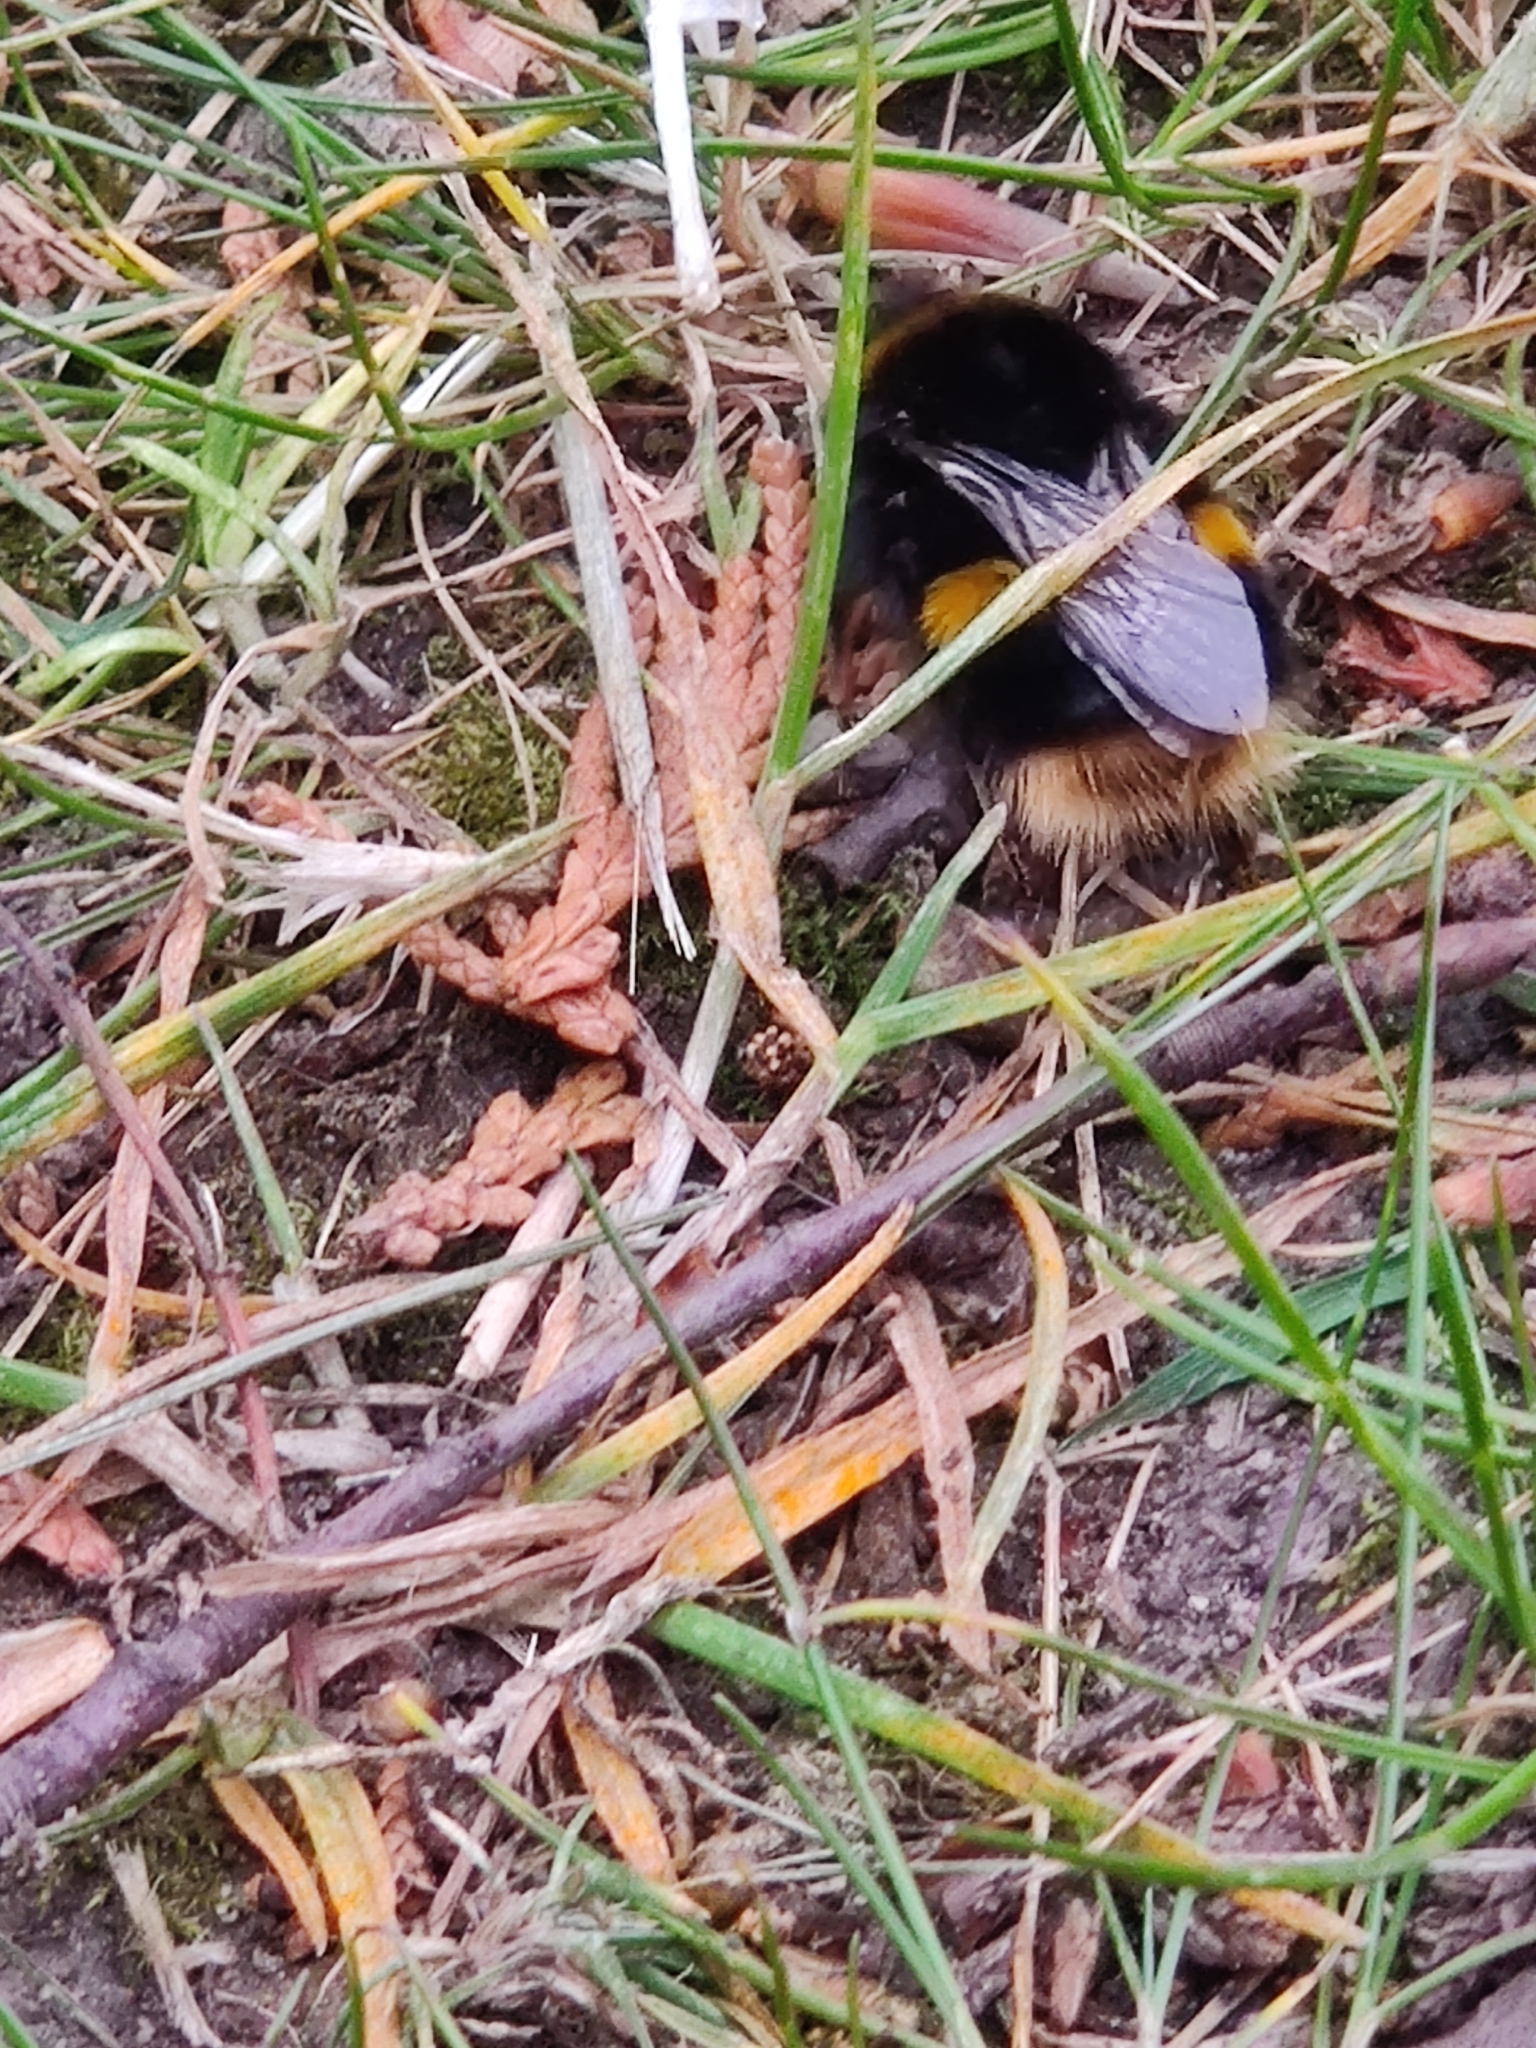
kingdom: Animalia
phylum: Arthropoda
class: Insecta
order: Hymenoptera
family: Apidae
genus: Bombus
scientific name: Bombus terrestris
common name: Buff-tailed bumblebee
